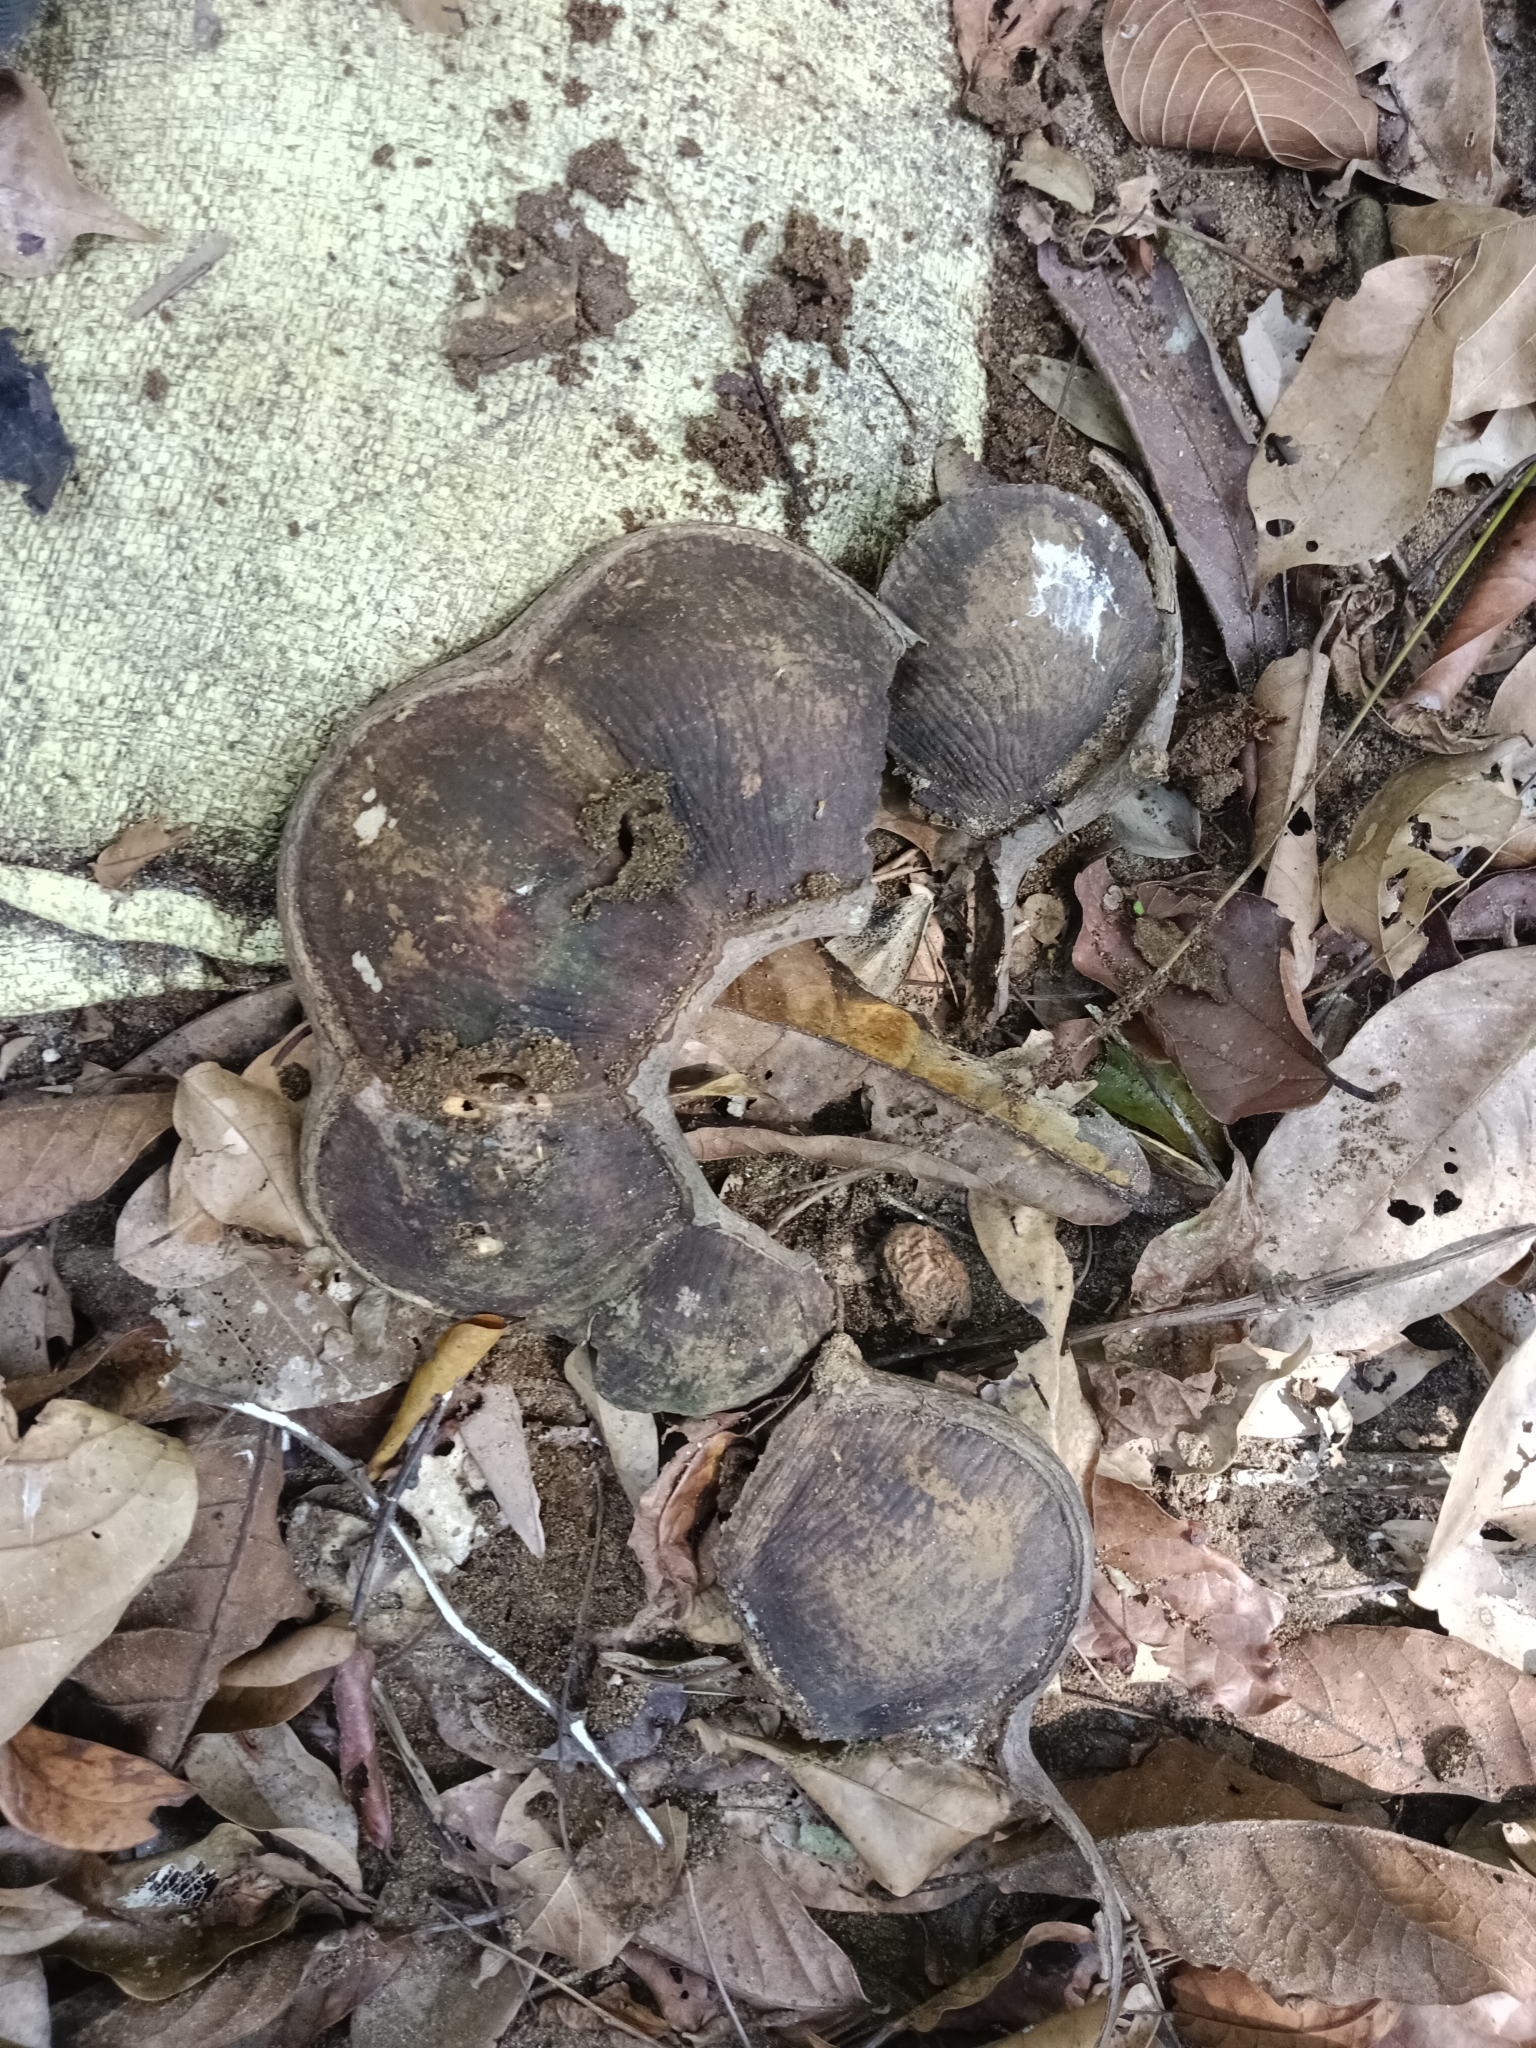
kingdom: Plantae
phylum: Tracheophyta
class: Magnoliopsida
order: Fabales
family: Fabaceae
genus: Entada
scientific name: Entada rheedei
